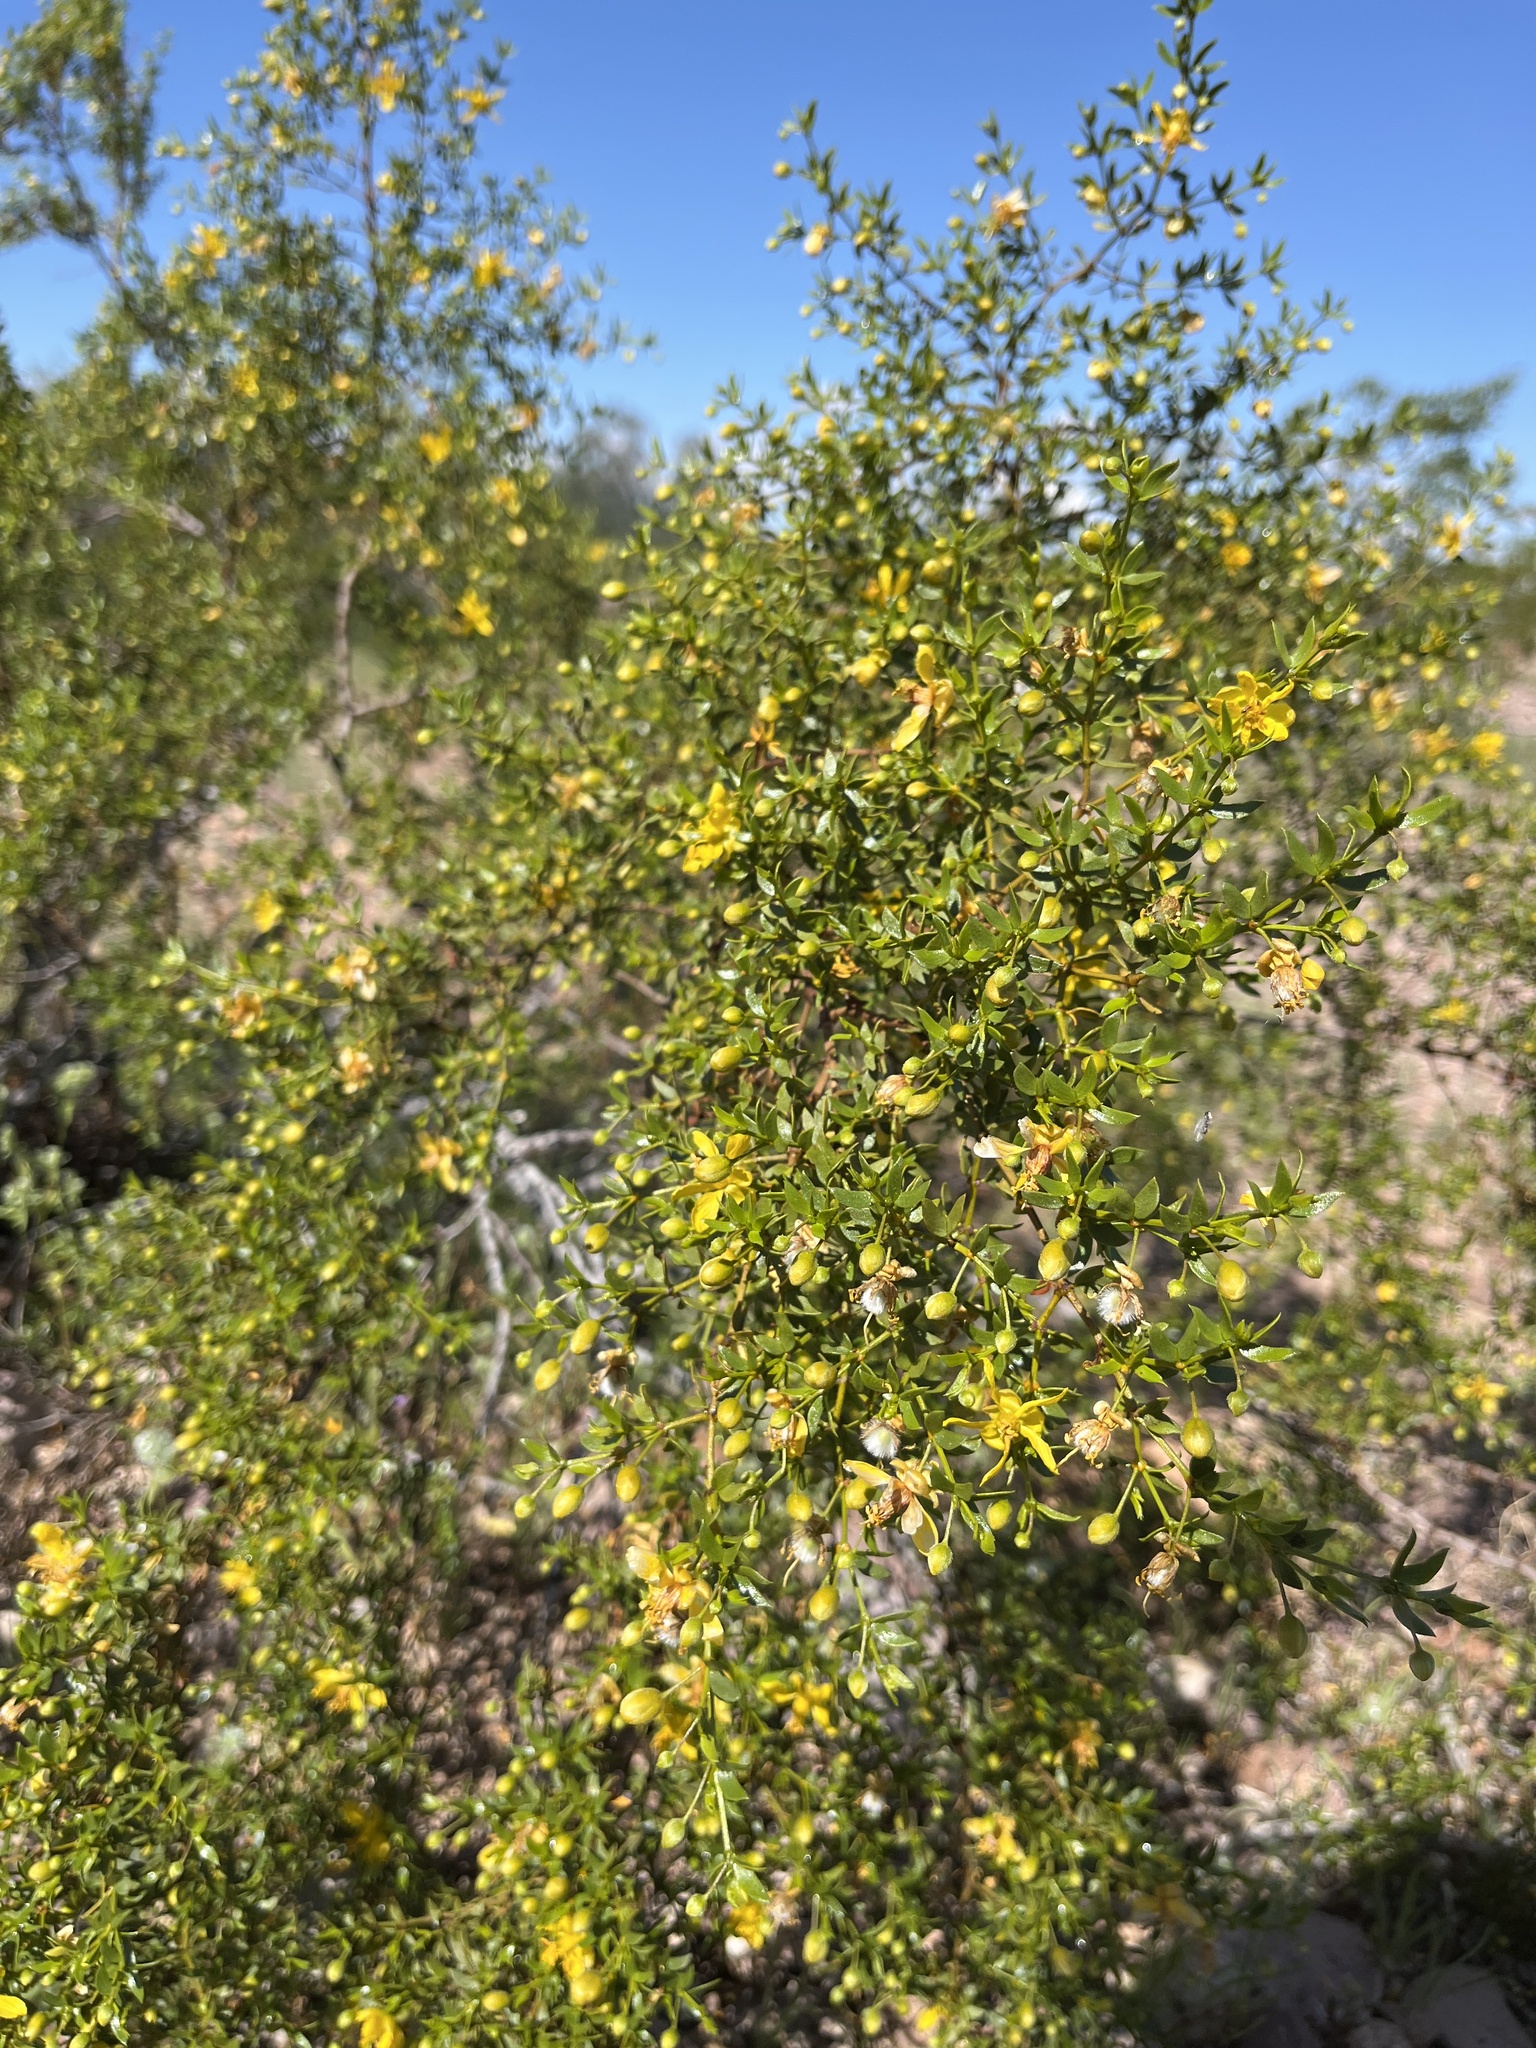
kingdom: Plantae
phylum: Tracheophyta
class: Magnoliopsida
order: Zygophyllales
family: Zygophyllaceae
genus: Larrea
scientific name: Larrea tridentata
